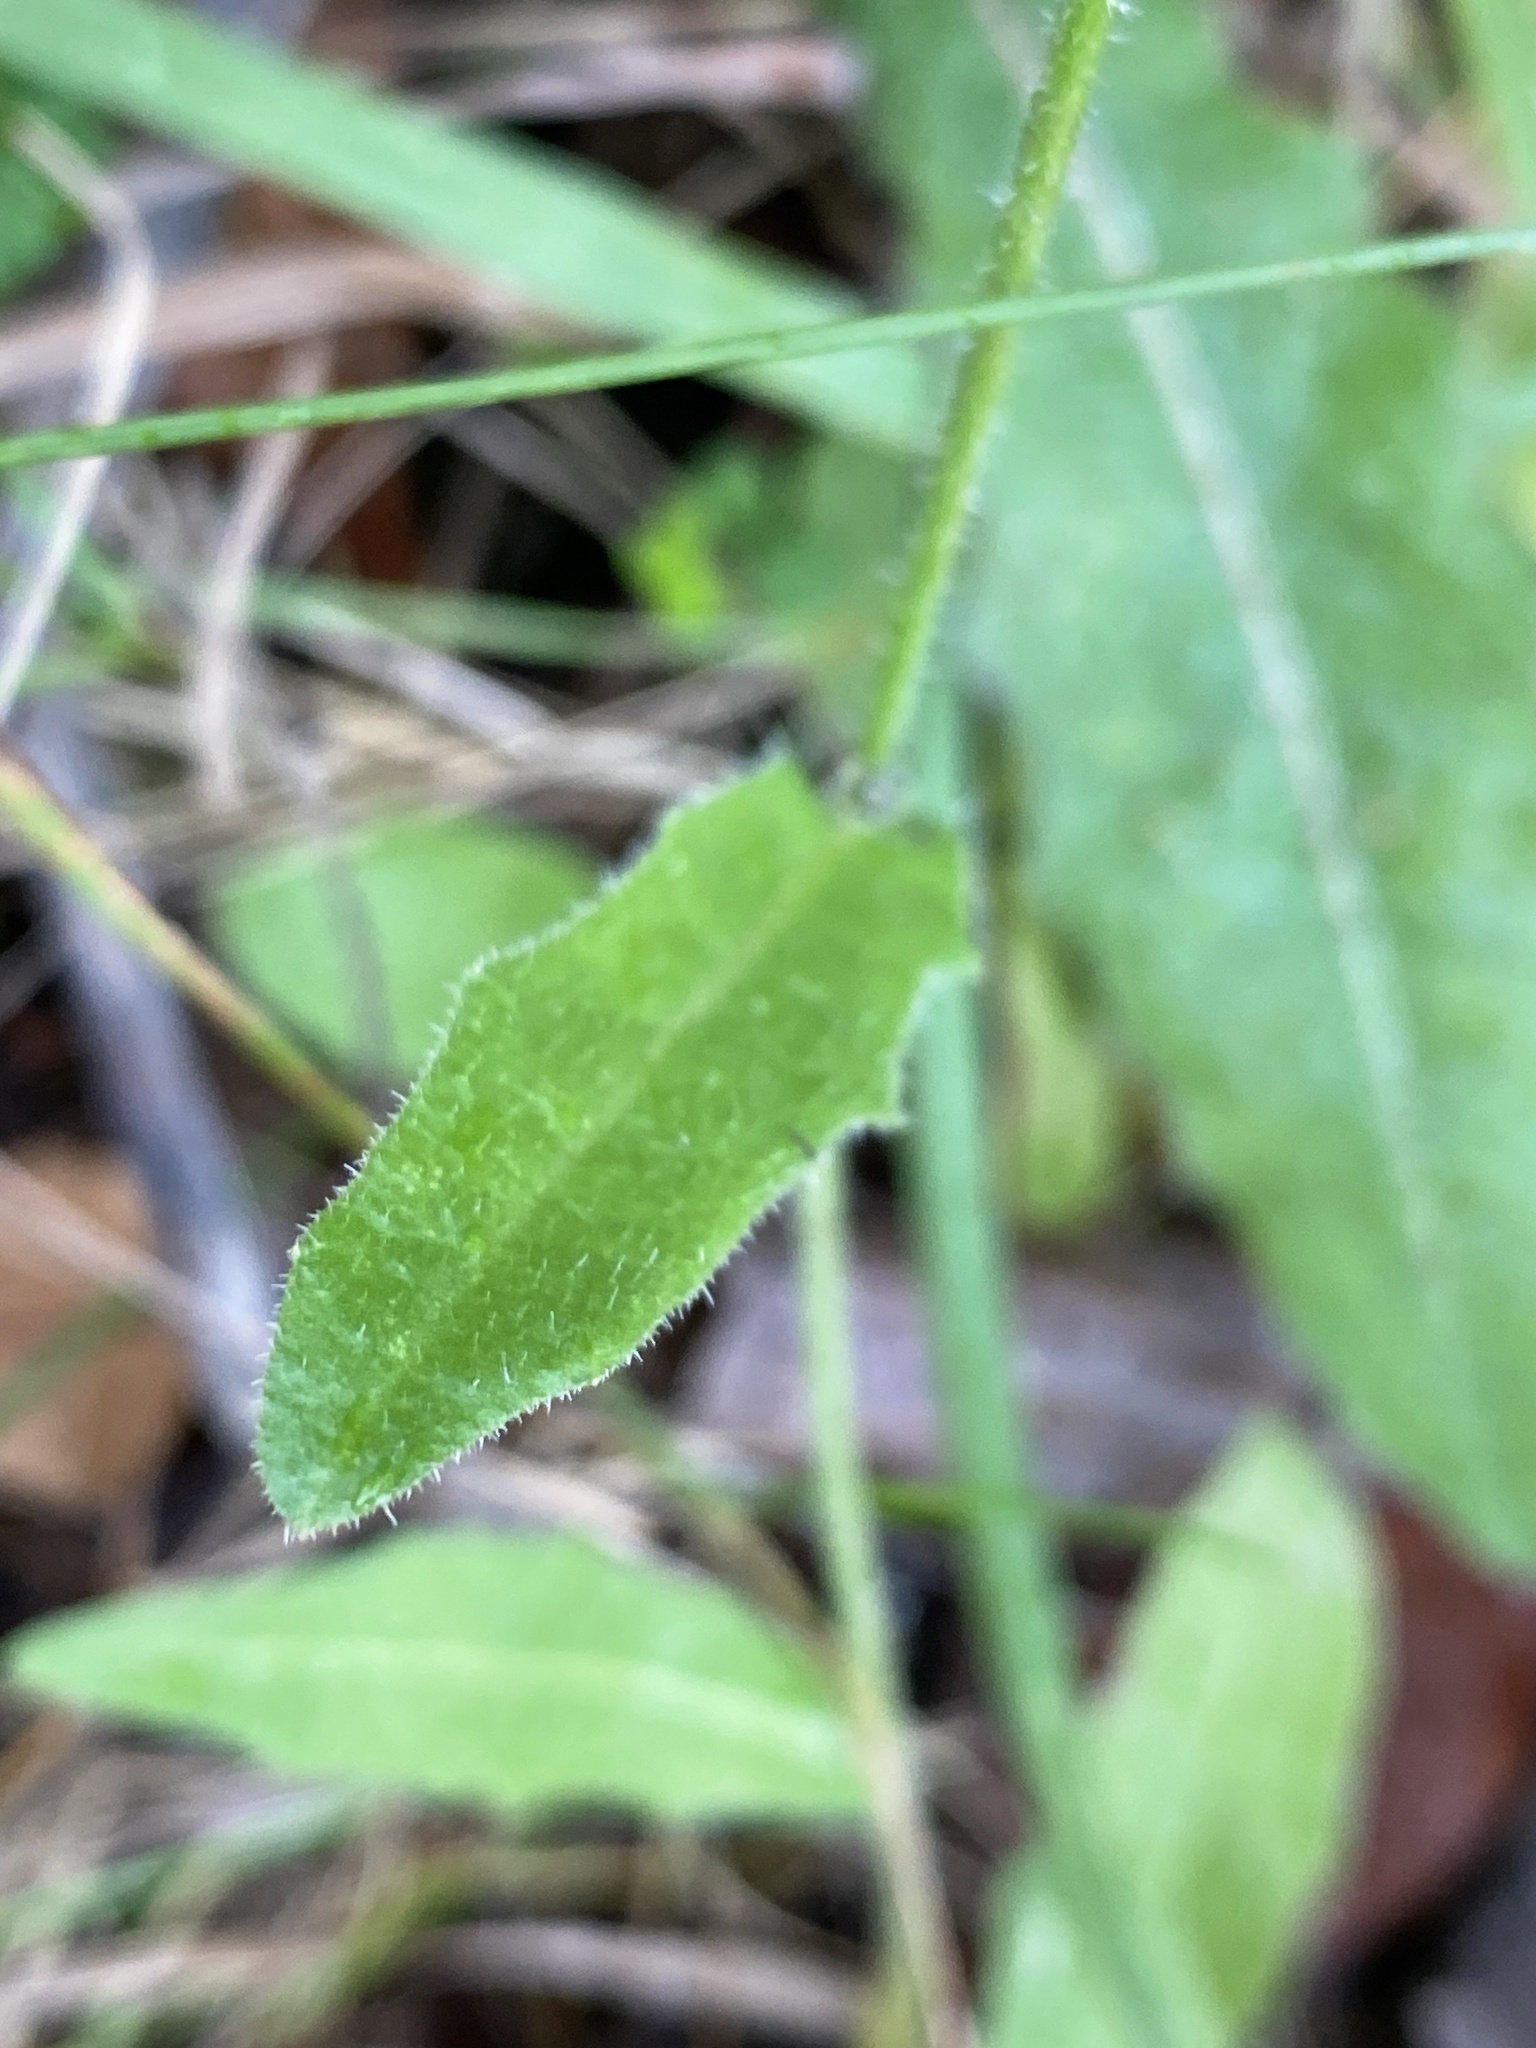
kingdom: Plantae
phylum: Tracheophyta
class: Magnoliopsida
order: Asterales
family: Asteraceae
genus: Picris
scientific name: Picris hieracioides
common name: Hawkweed oxtongue
